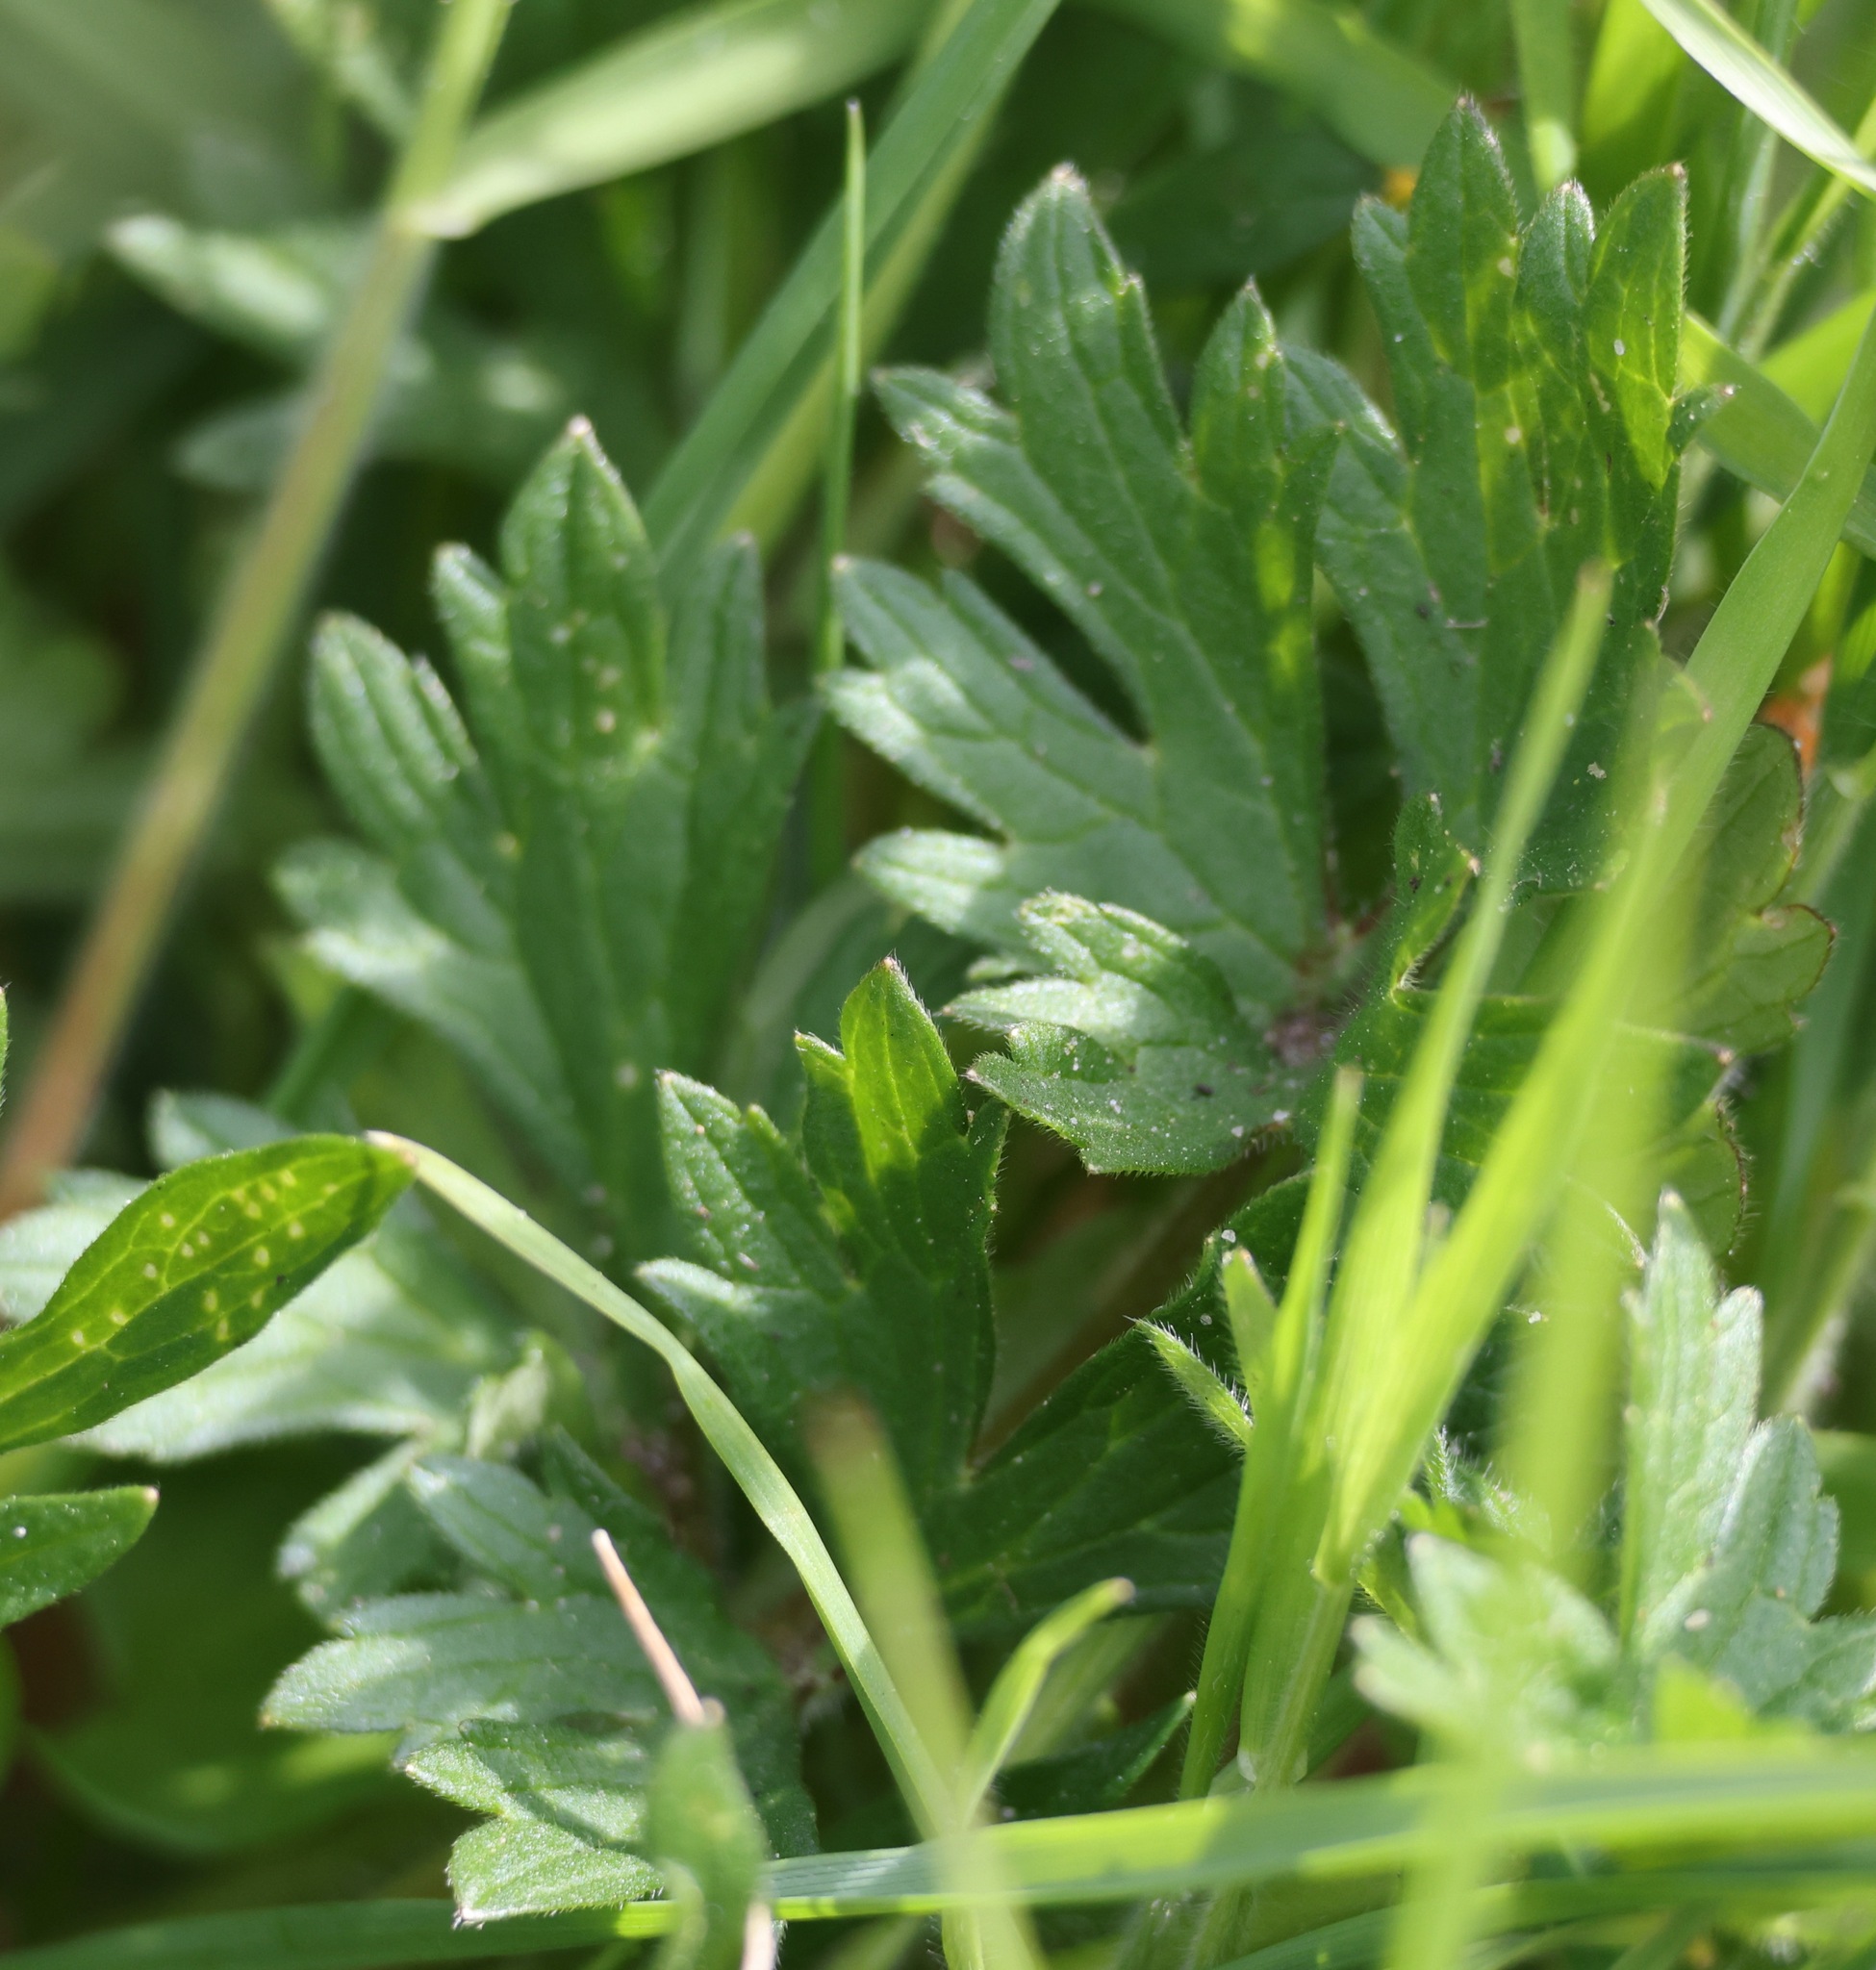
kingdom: Plantae
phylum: Tracheophyta
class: Magnoliopsida
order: Ranunculales
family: Ranunculaceae
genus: Ranunculus
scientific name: Ranunculus bulbosus
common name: Bulbous buttercup
